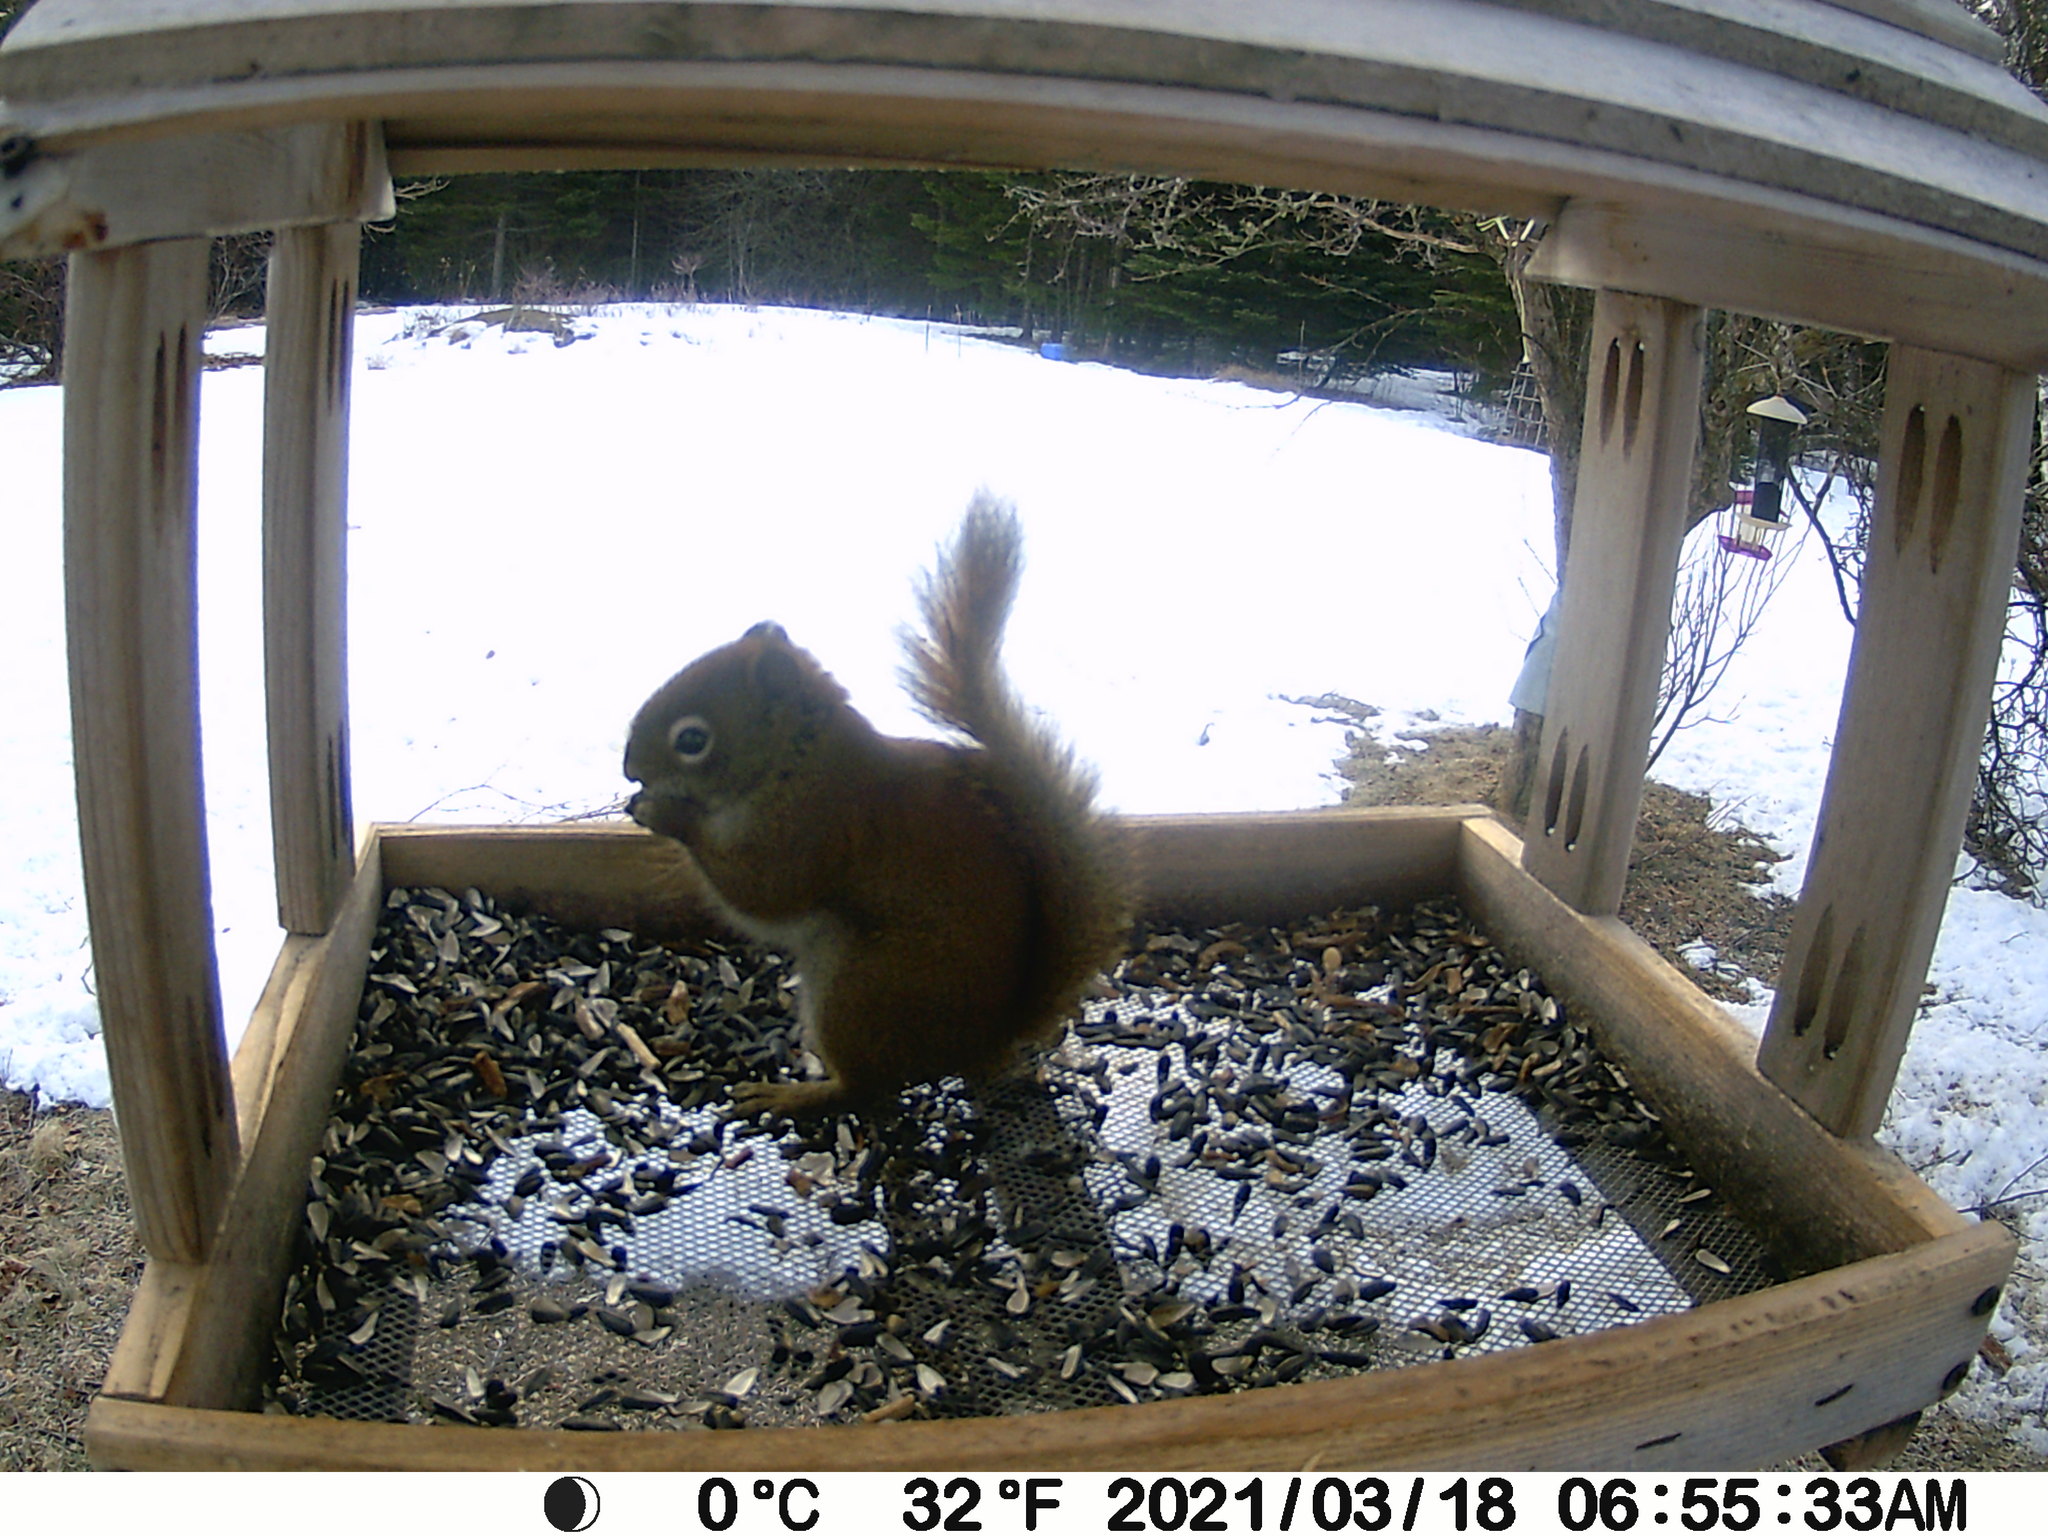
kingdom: Animalia
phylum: Chordata
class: Mammalia
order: Rodentia
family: Sciuridae
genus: Tamiasciurus
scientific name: Tamiasciurus hudsonicus
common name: Red squirrel
